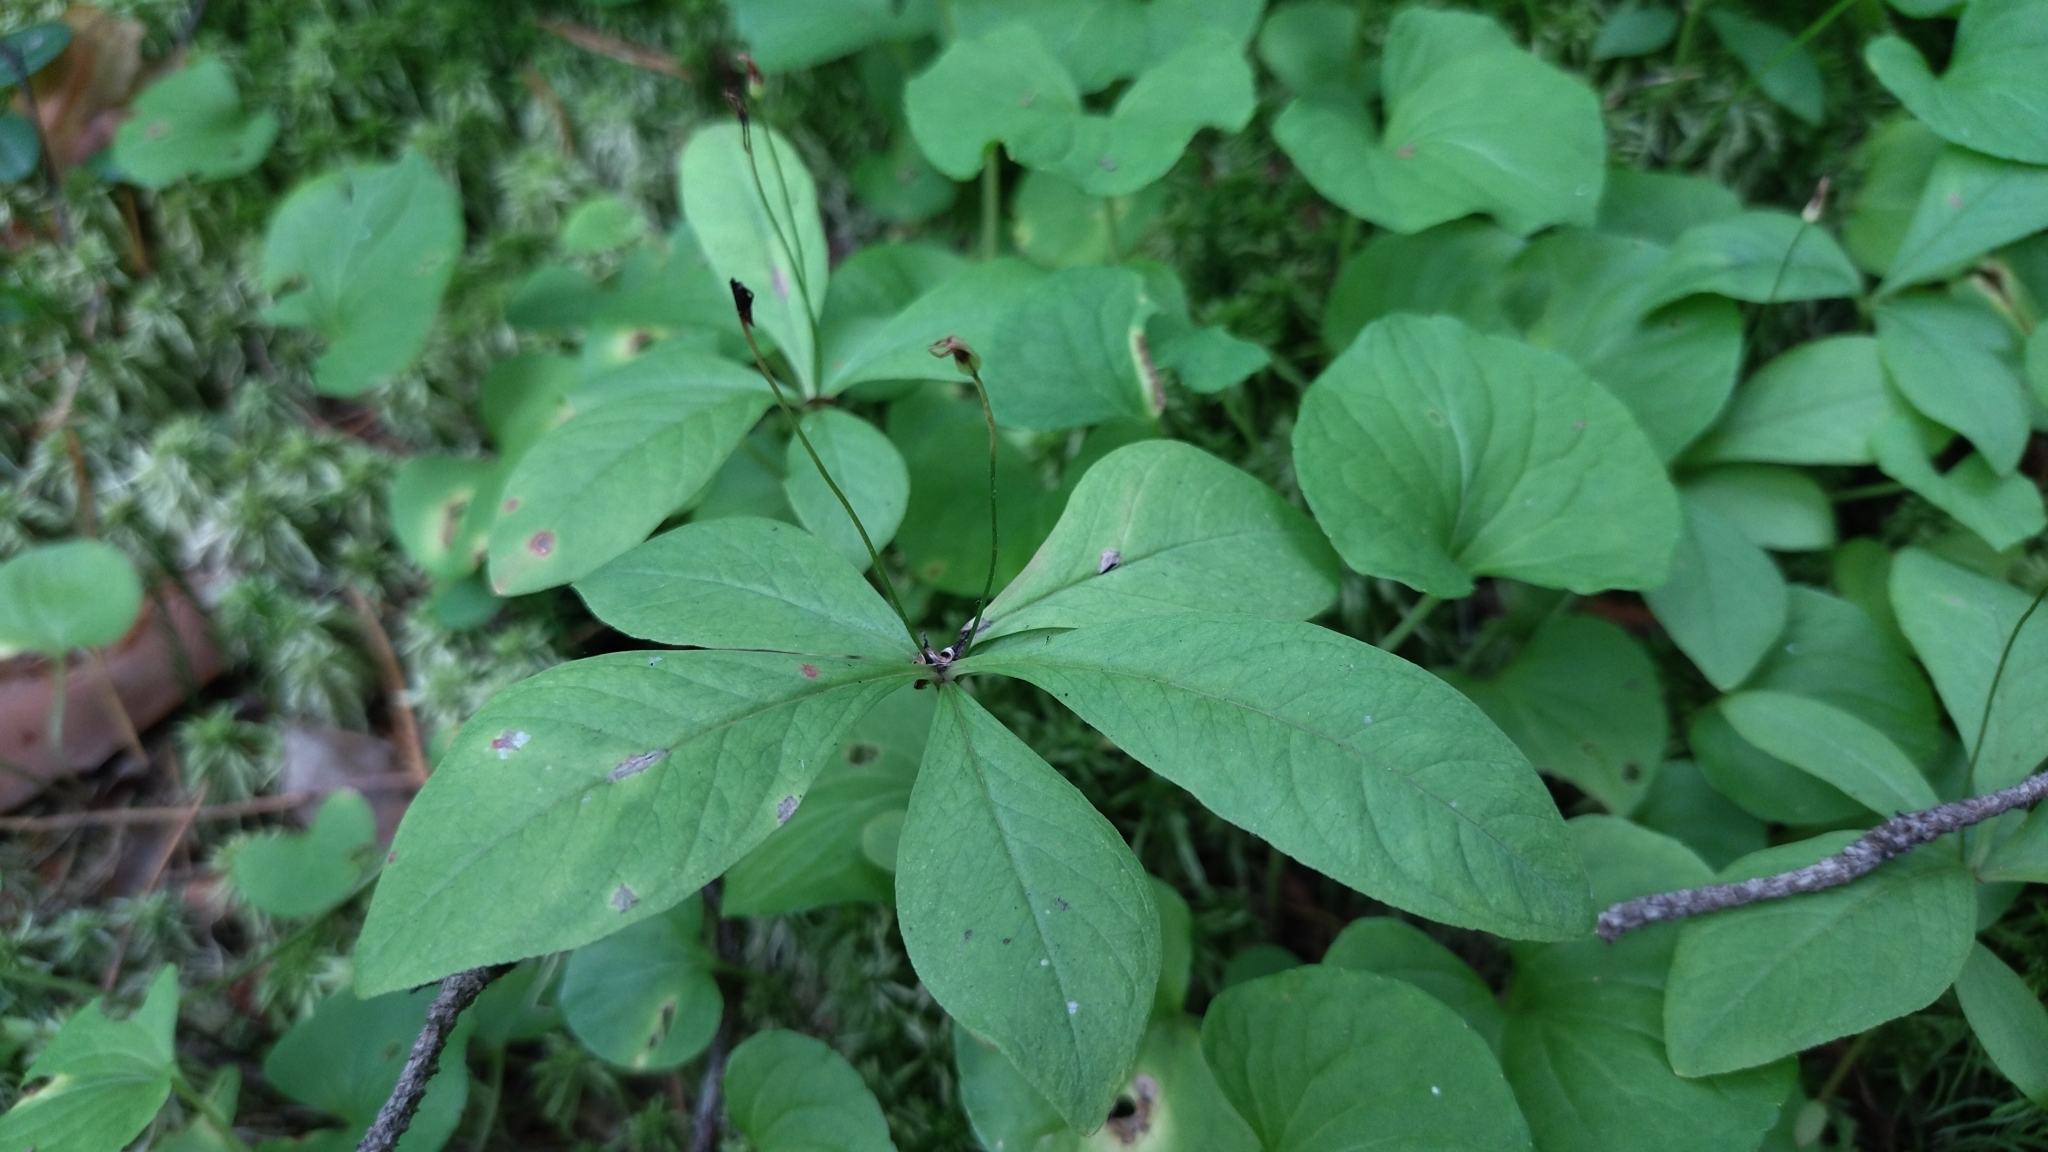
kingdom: Plantae
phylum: Tracheophyta
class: Magnoliopsida
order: Ericales
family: Primulaceae
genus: Lysimachia
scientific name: Lysimachia europaea
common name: Arctic starflower
